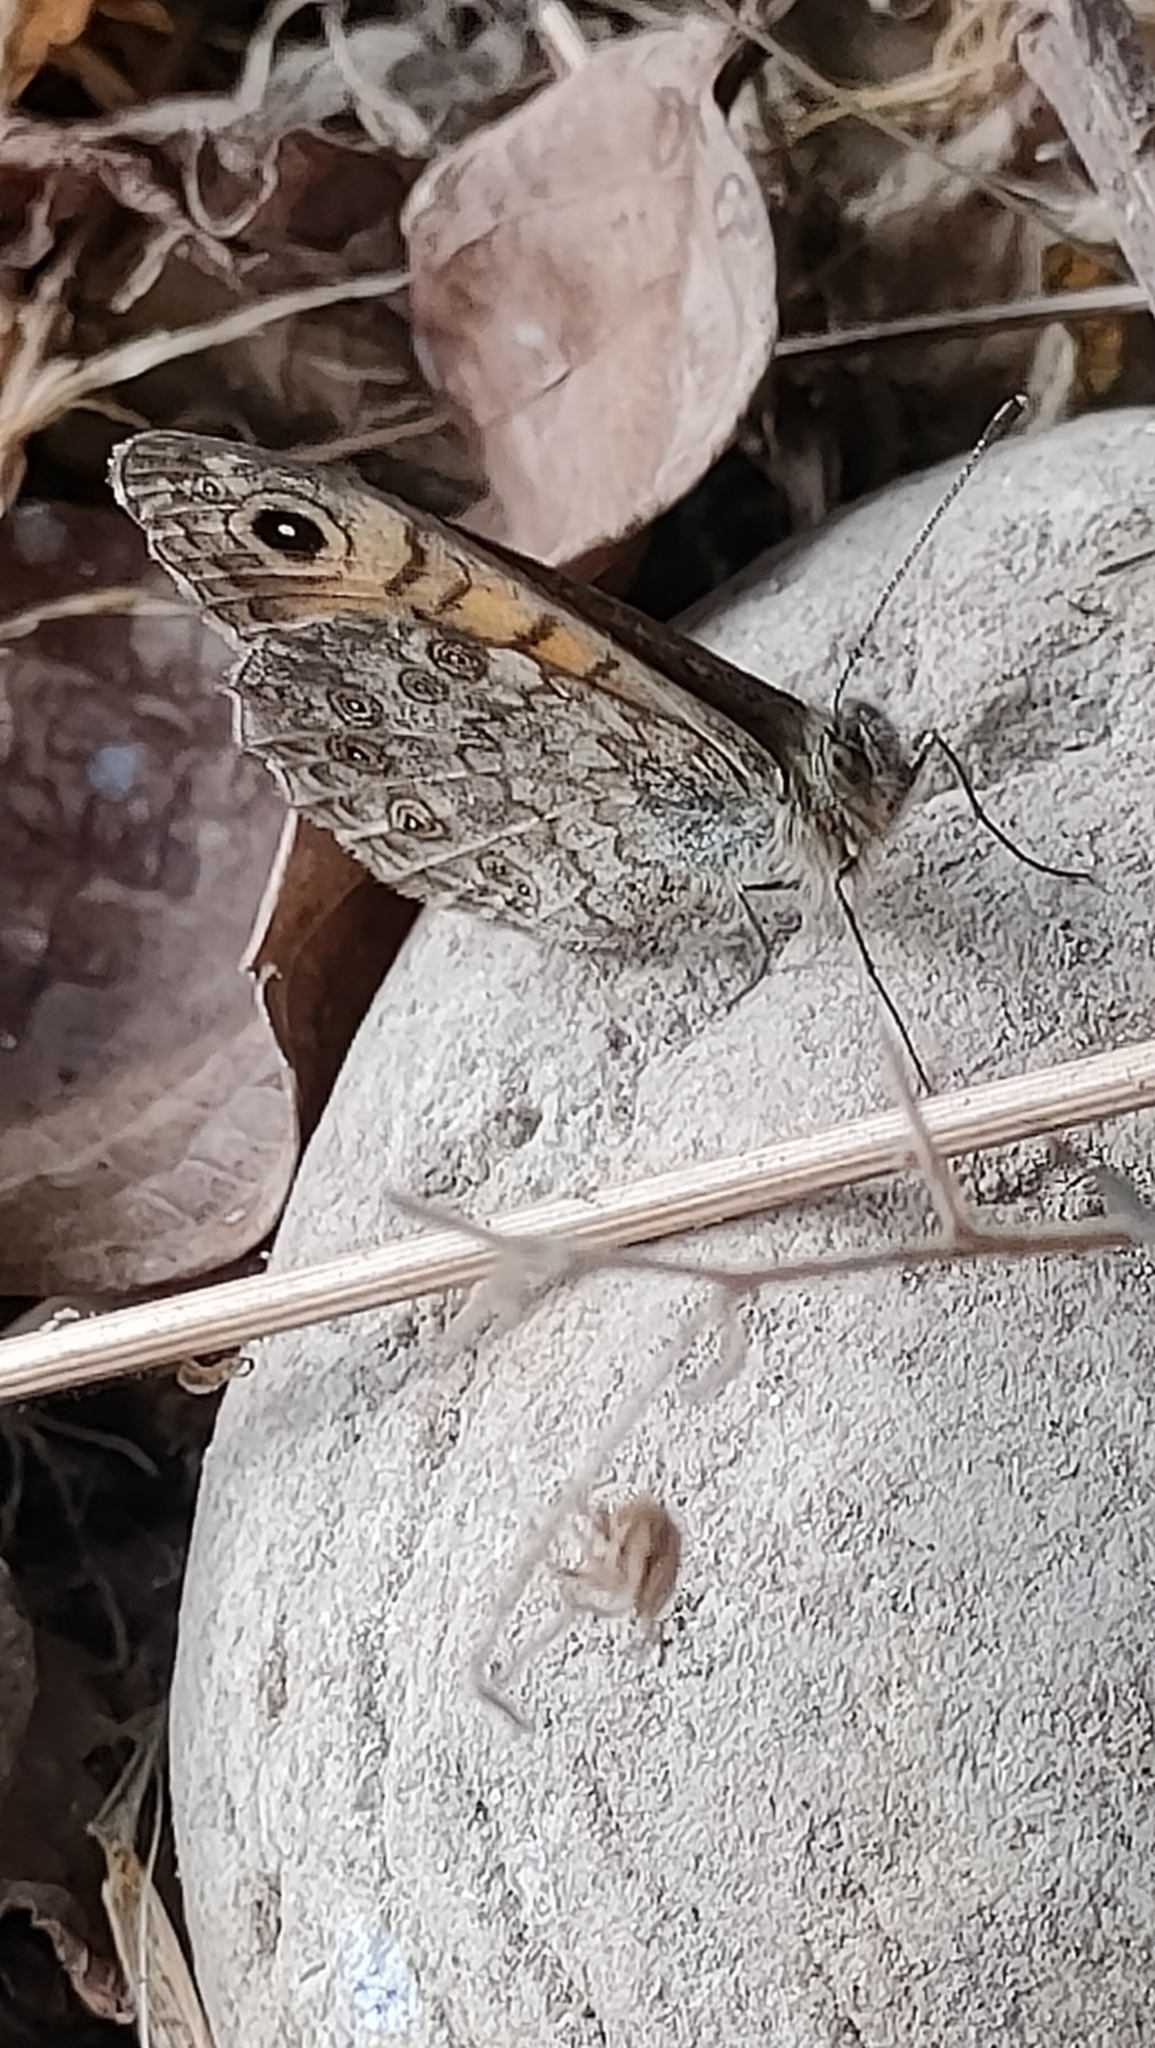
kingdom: Animalia
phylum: Arthropoda
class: Insecta
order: Lepidoptera
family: Nymphalidae
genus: Pararge
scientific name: Pararge Lasiommata megera
